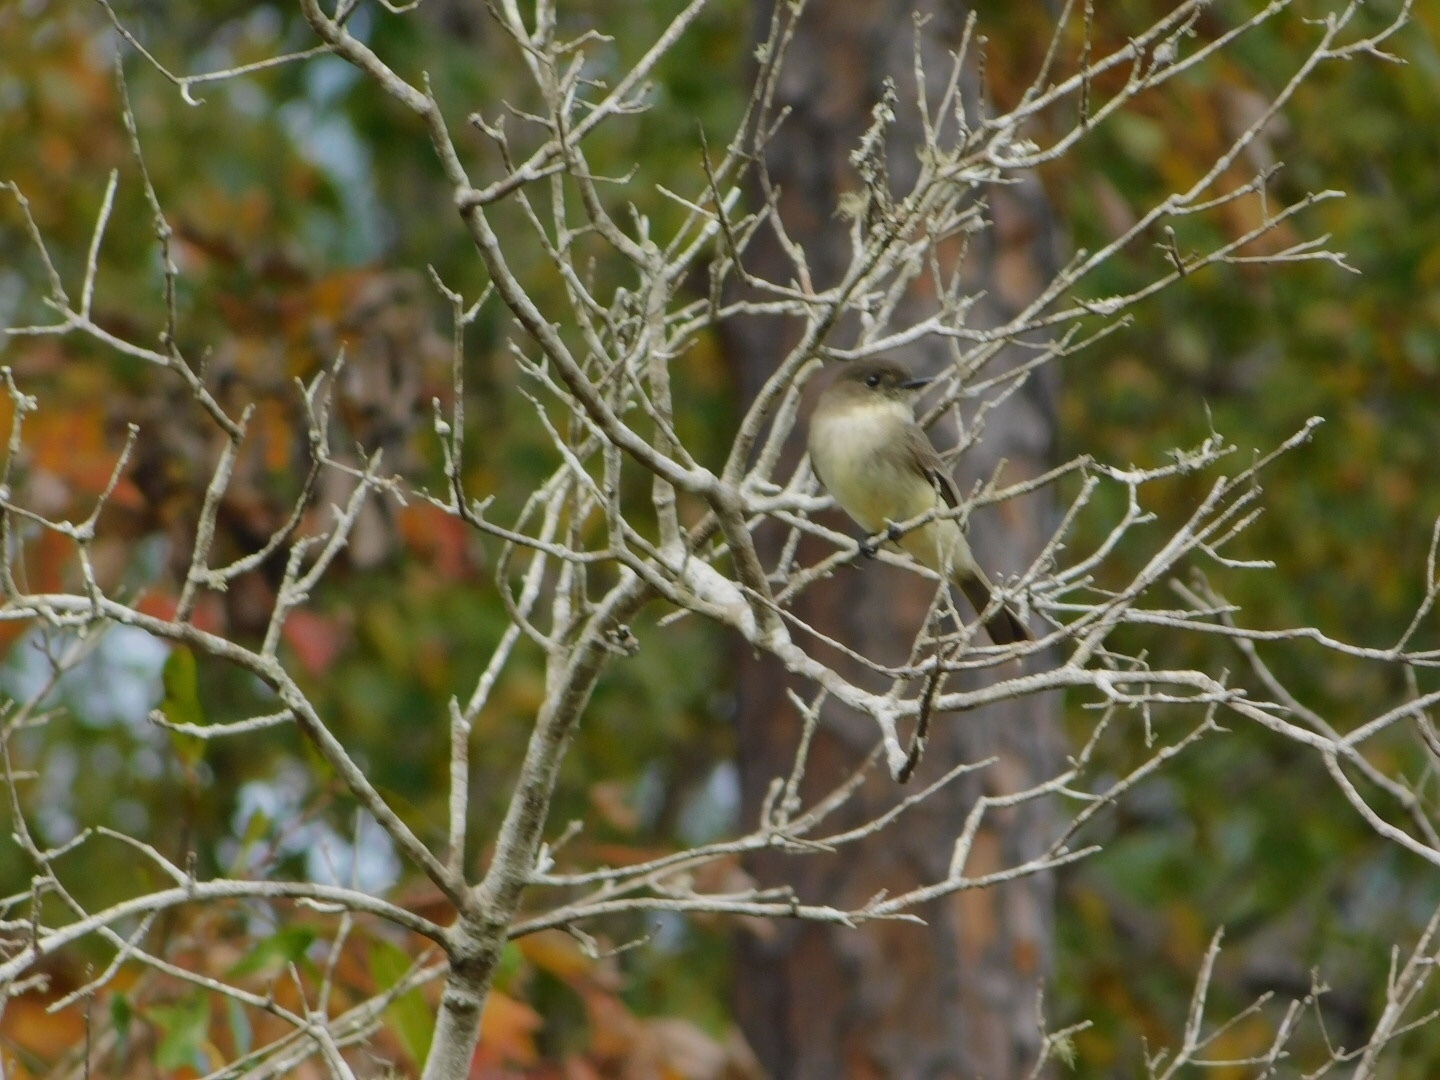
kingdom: Animalia
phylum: Chordata
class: Aves
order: Passeriformes
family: Tyrannidae
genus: Sayornis
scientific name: Sayornis phoebe
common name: Eastern phoebe
